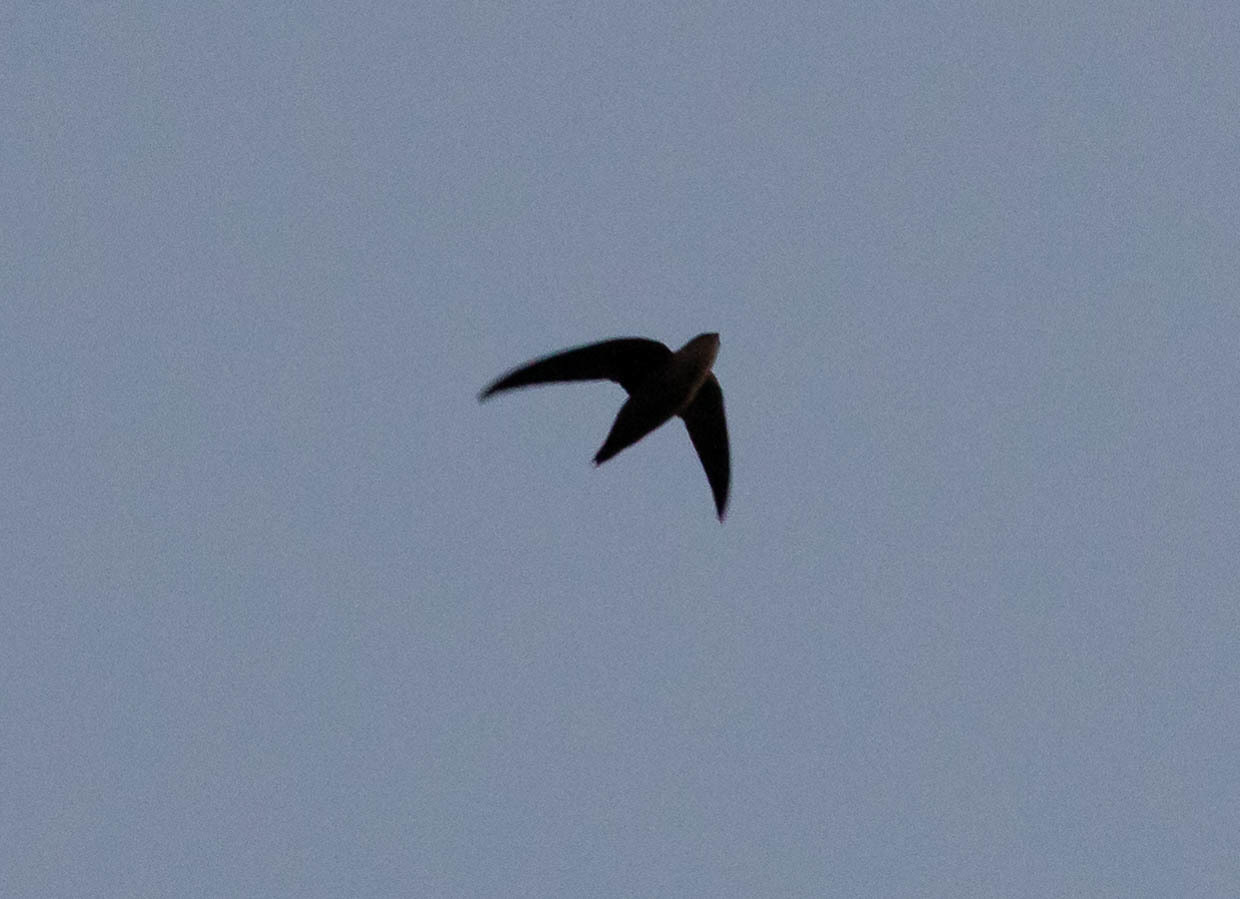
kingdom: Animalia
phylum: Chordata
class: Aves
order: Apodiformes
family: Apodidae
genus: Chaetura
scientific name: Chaetura pelagica
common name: Chimney swift
